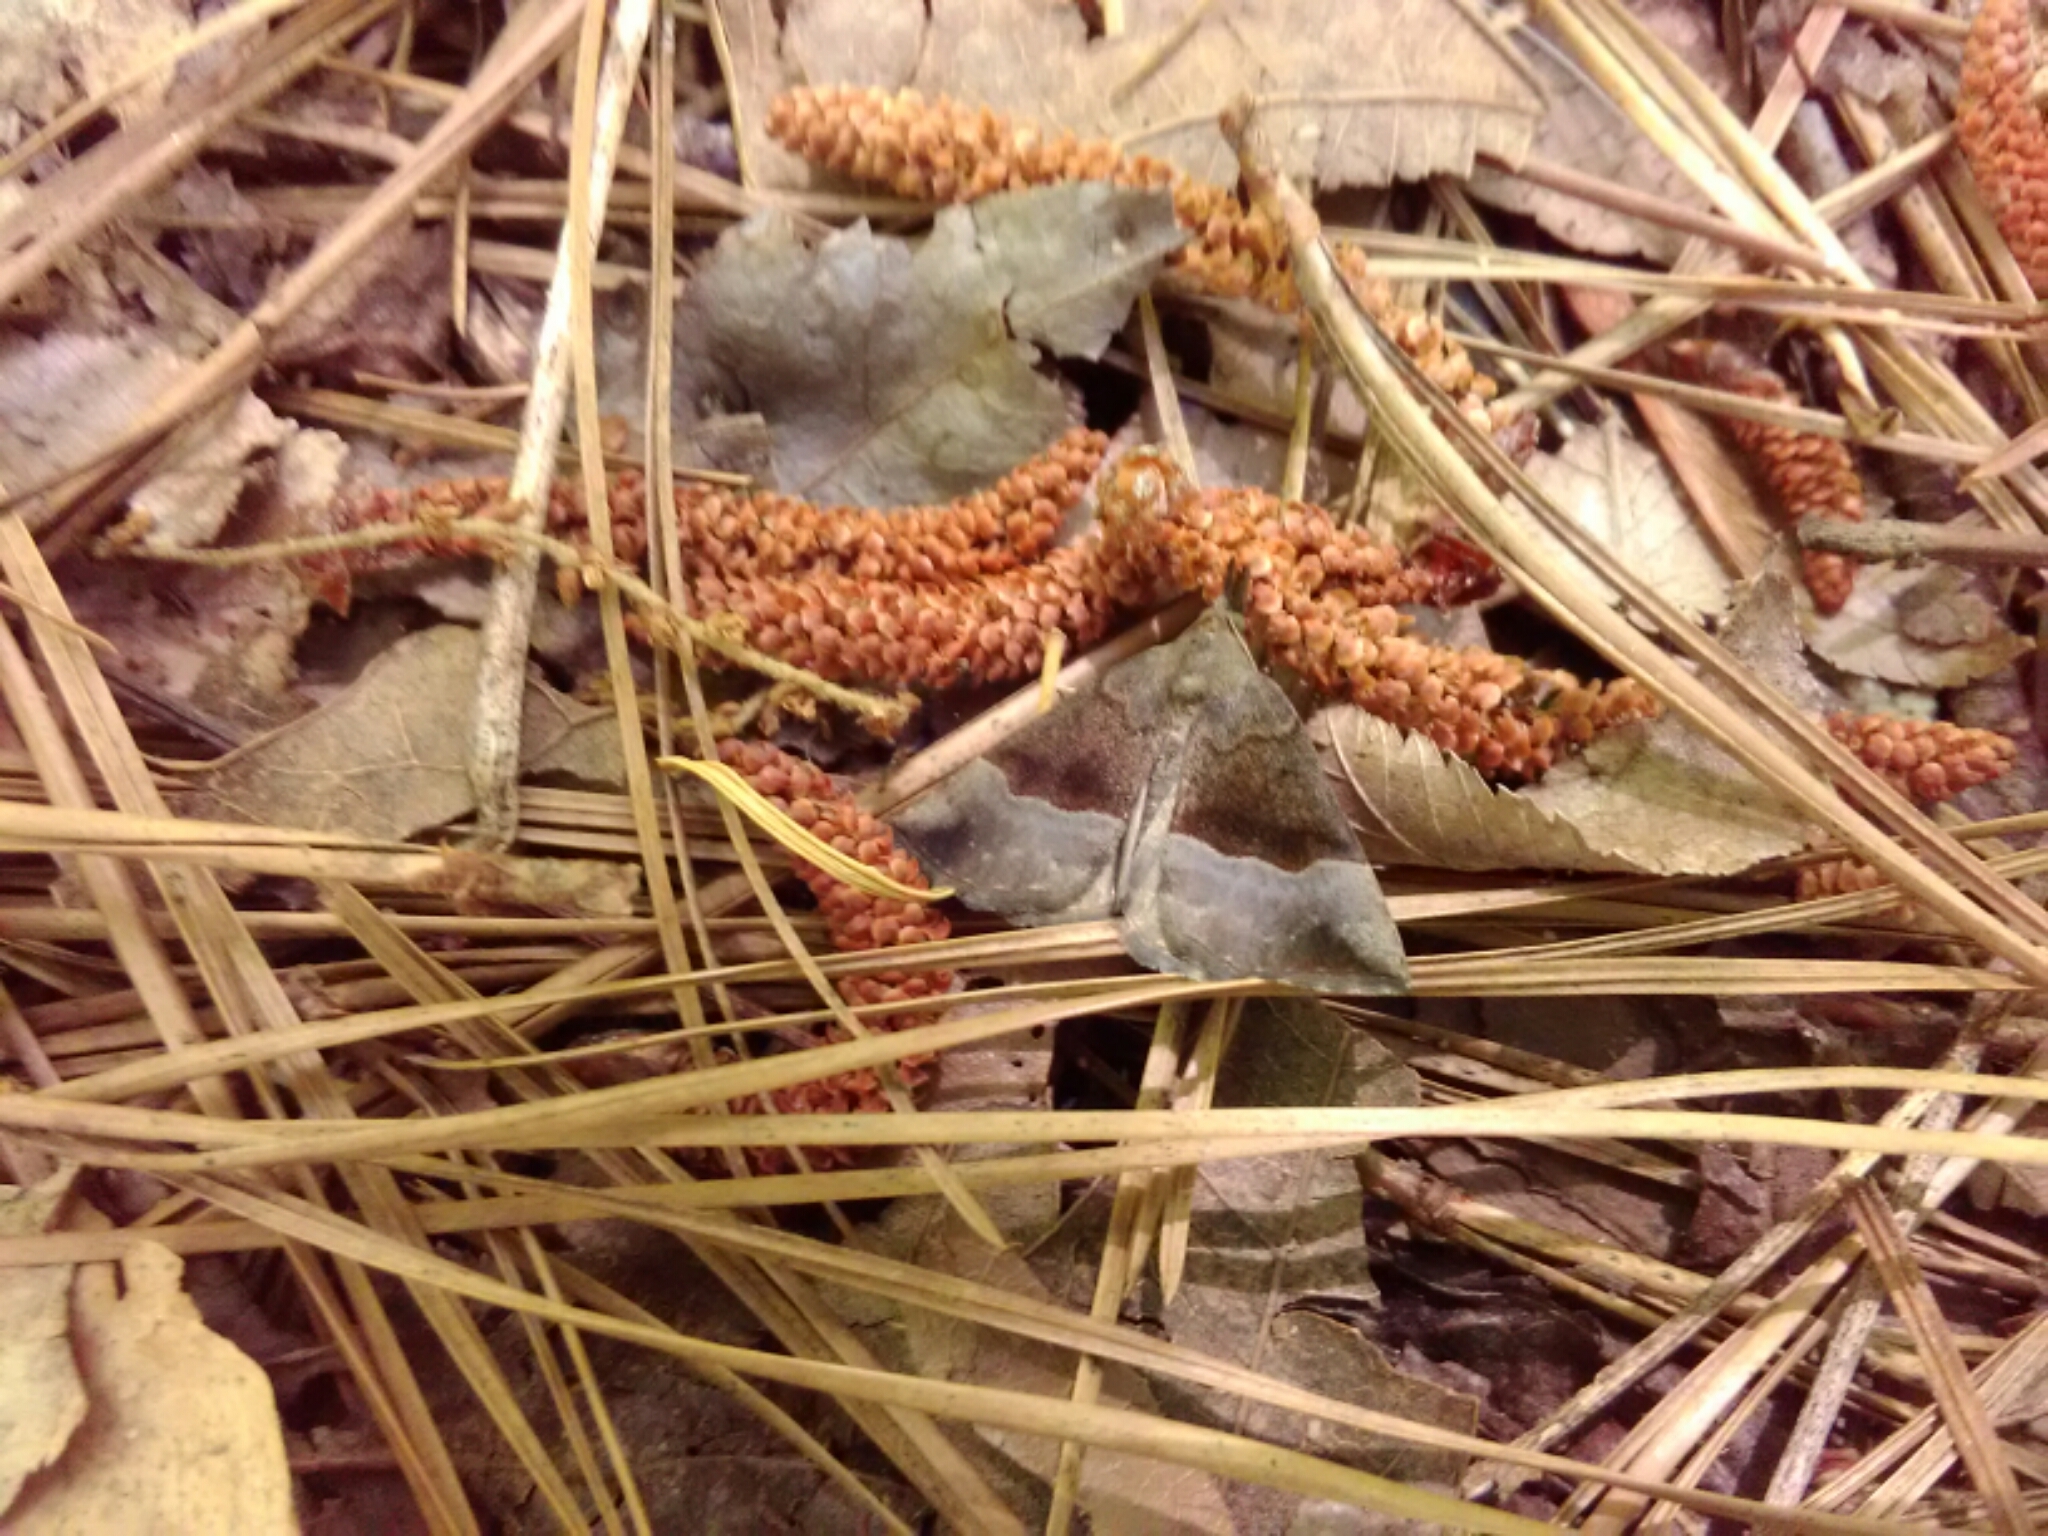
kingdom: Animalia
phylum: Arthropoda
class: Insecta
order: Lepidoptera
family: Erebidae
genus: Hypena
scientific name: Hypena madefactalis
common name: Gray-edged snout
